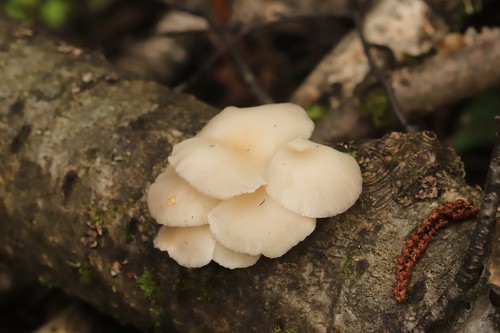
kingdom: Fungi
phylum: Basidiomycota
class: Agaricomycetes
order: Agaricales
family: Pleurotaceae
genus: Pleurotus
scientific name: Pleurotus pulmonarius
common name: Pale oyster
